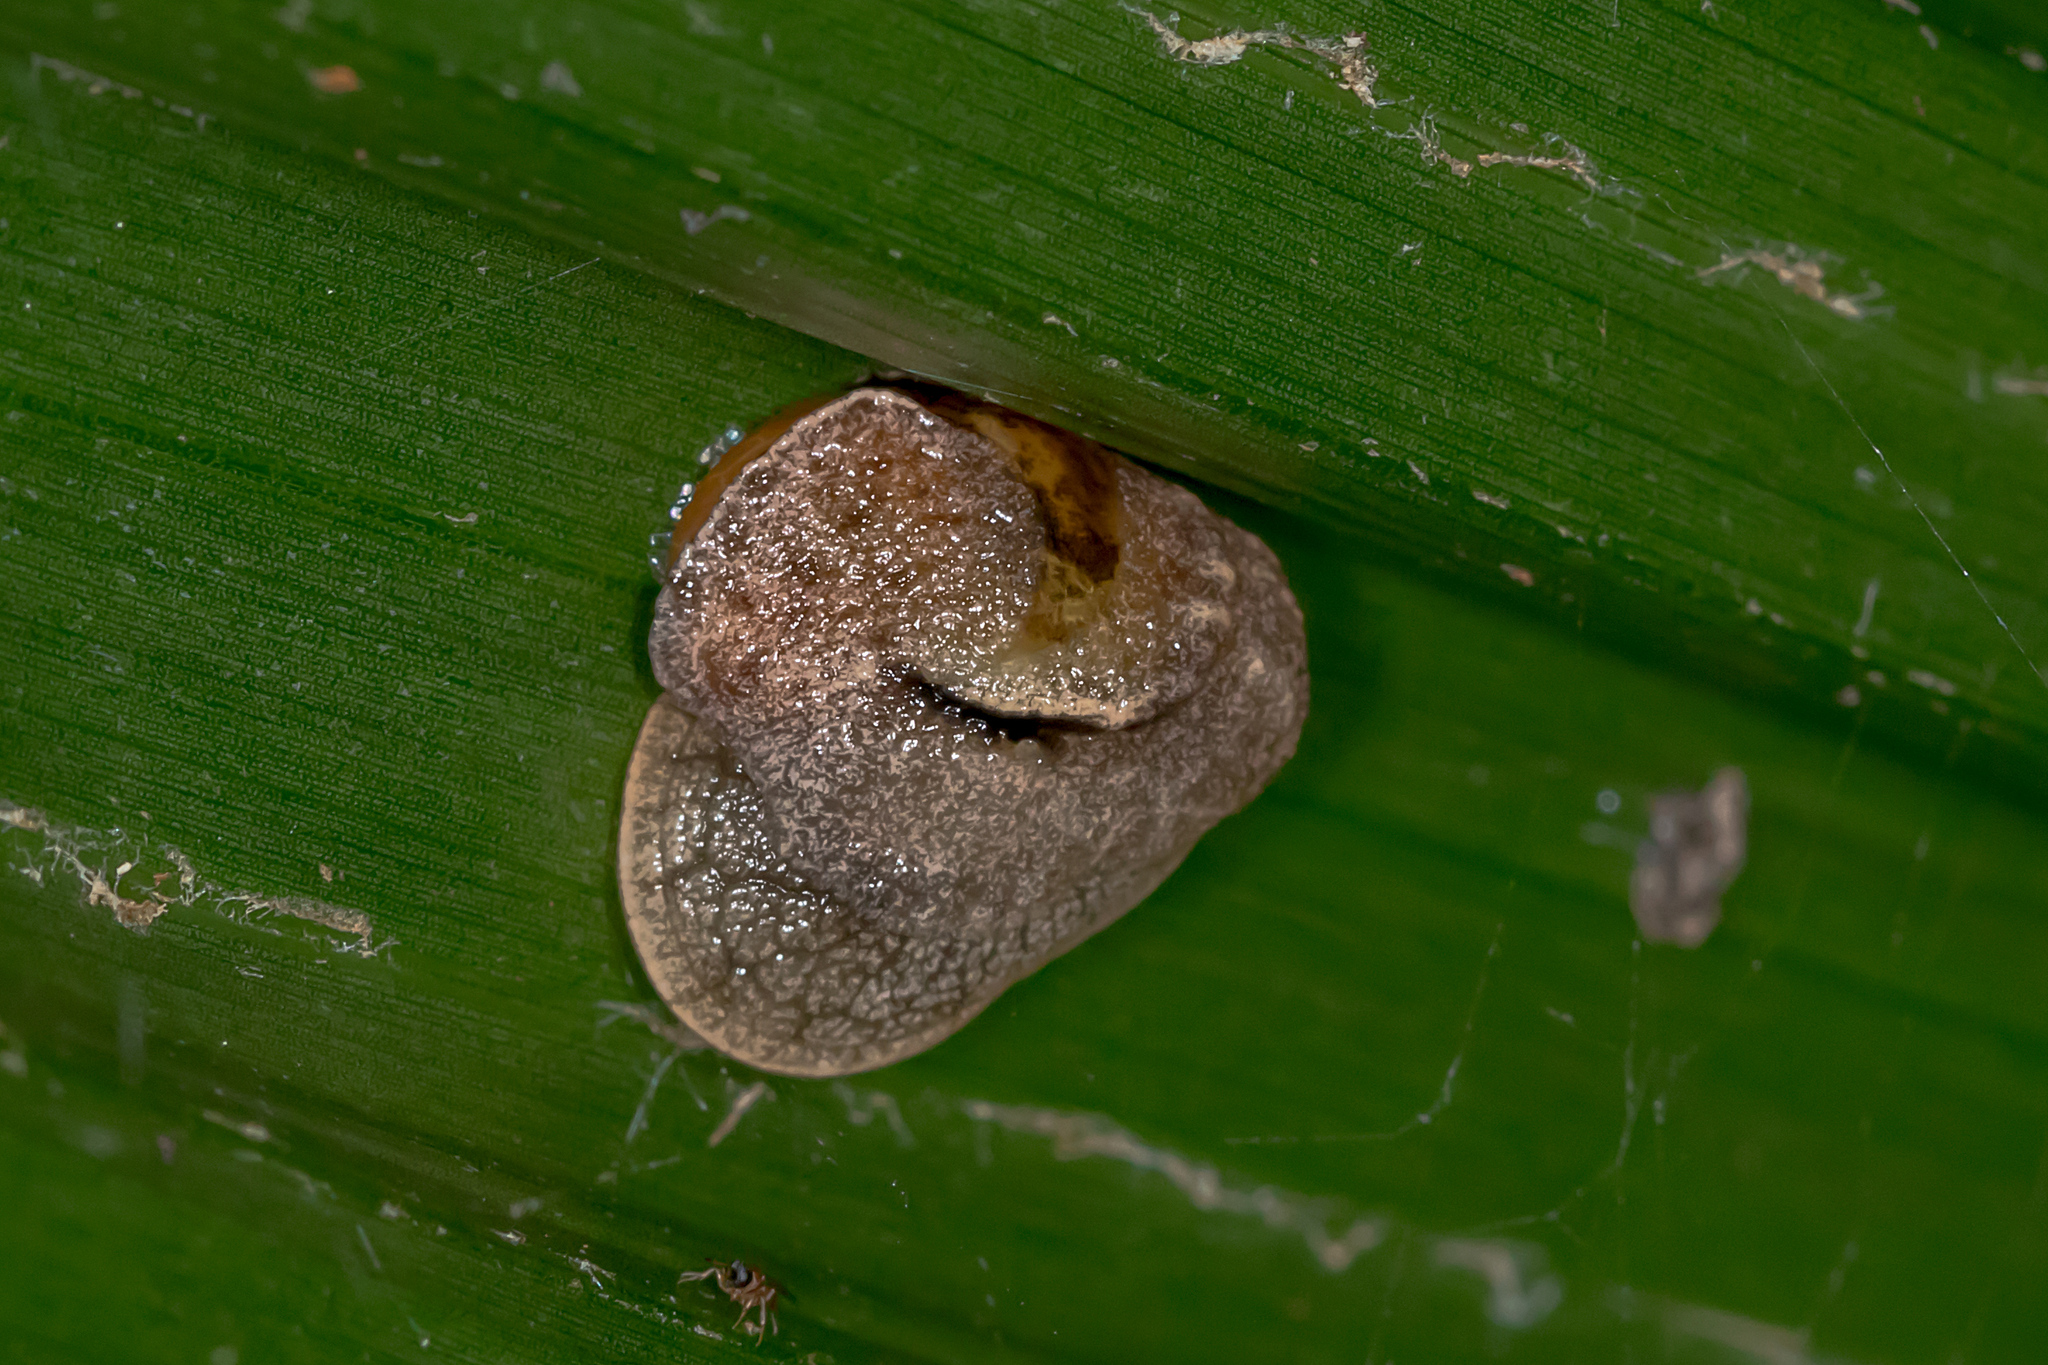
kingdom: Animalia
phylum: Mollusca
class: Gastropoda
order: Stylommatophora
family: Helicarionidae
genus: Ubiquitarion
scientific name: Ubiquitarion iridis
